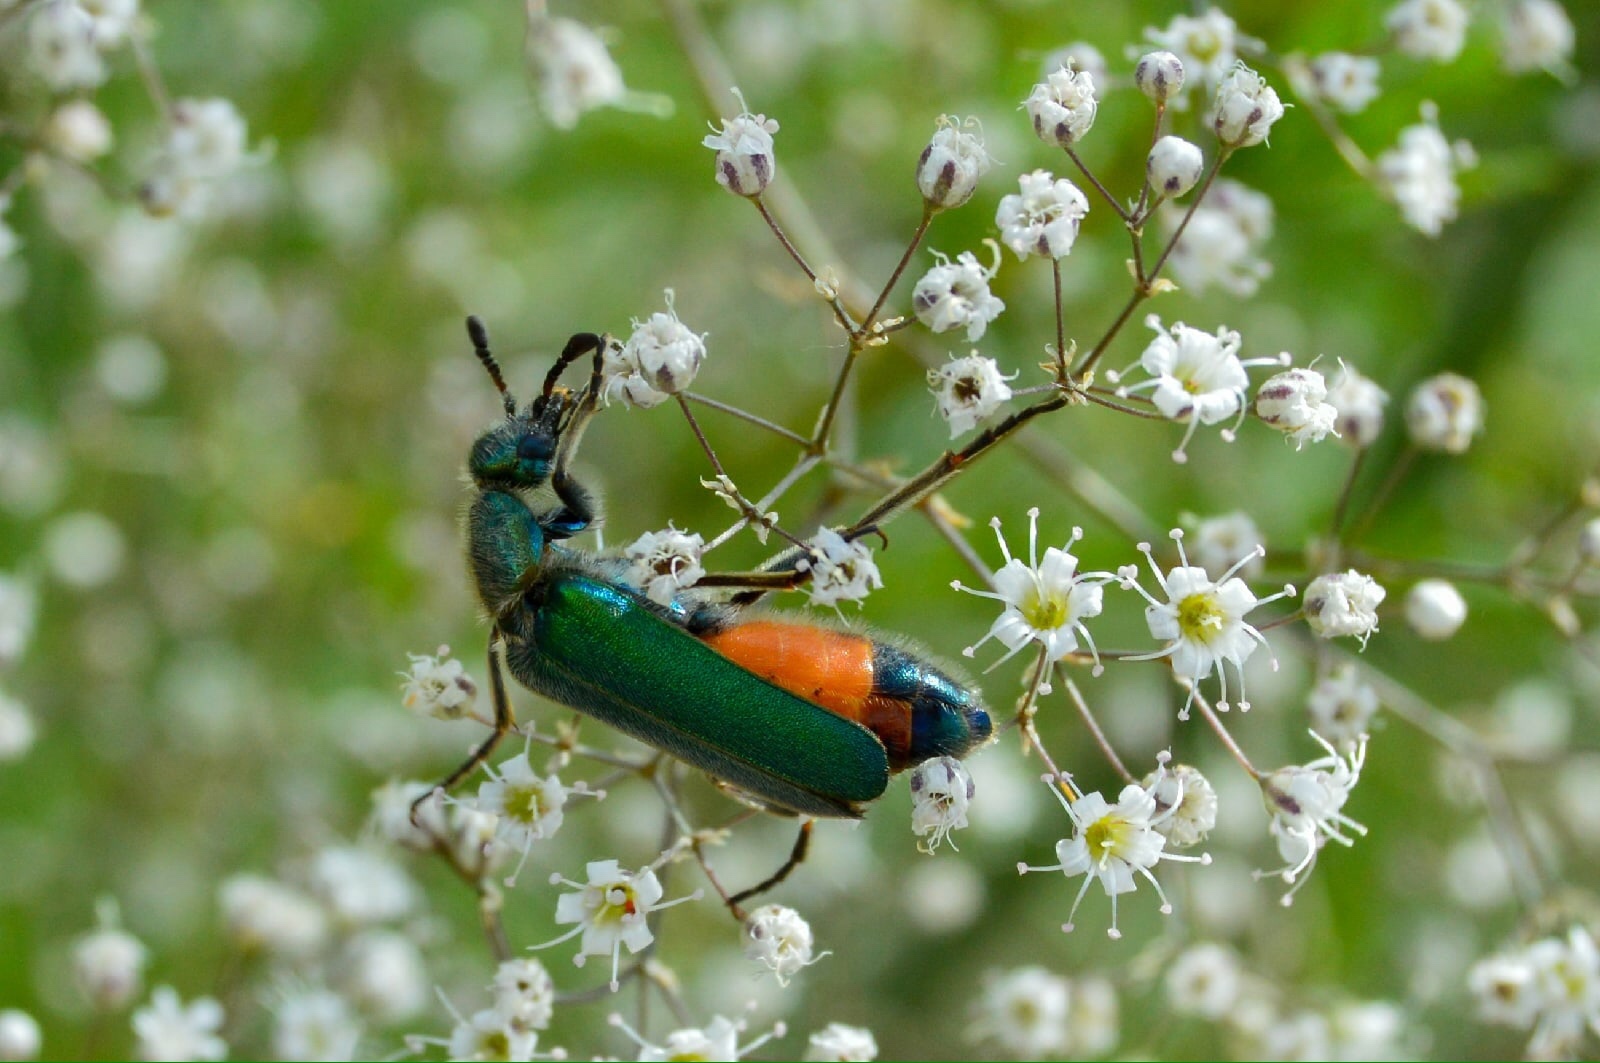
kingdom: Animalia
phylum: Arthropoda
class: Insecta
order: Coleoptera
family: Meloidae
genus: Cerocoma
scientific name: Cerocoma schreberi
